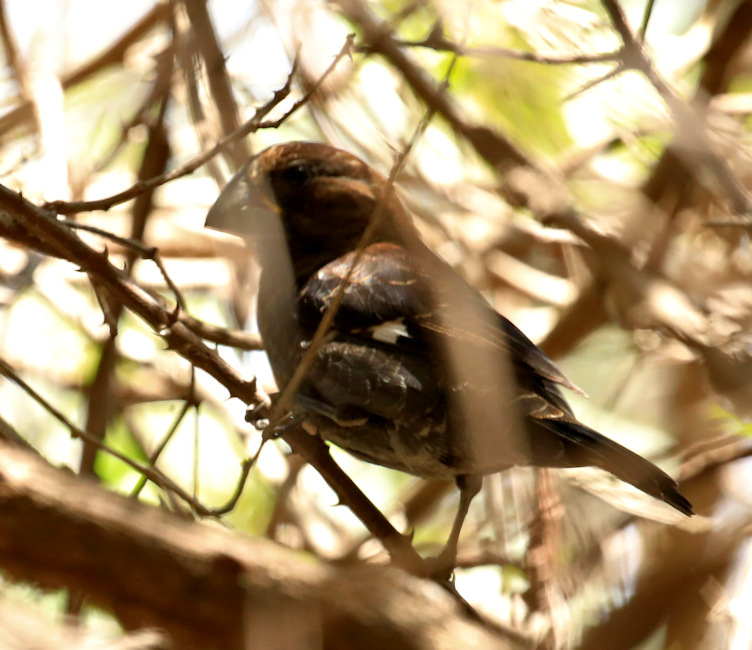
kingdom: Animalia
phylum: Chordata
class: Aves
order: Passeriformes
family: Ploceidae
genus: Amblyospiza
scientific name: Amblyospiza albifrons
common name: Thick-billed weaver
